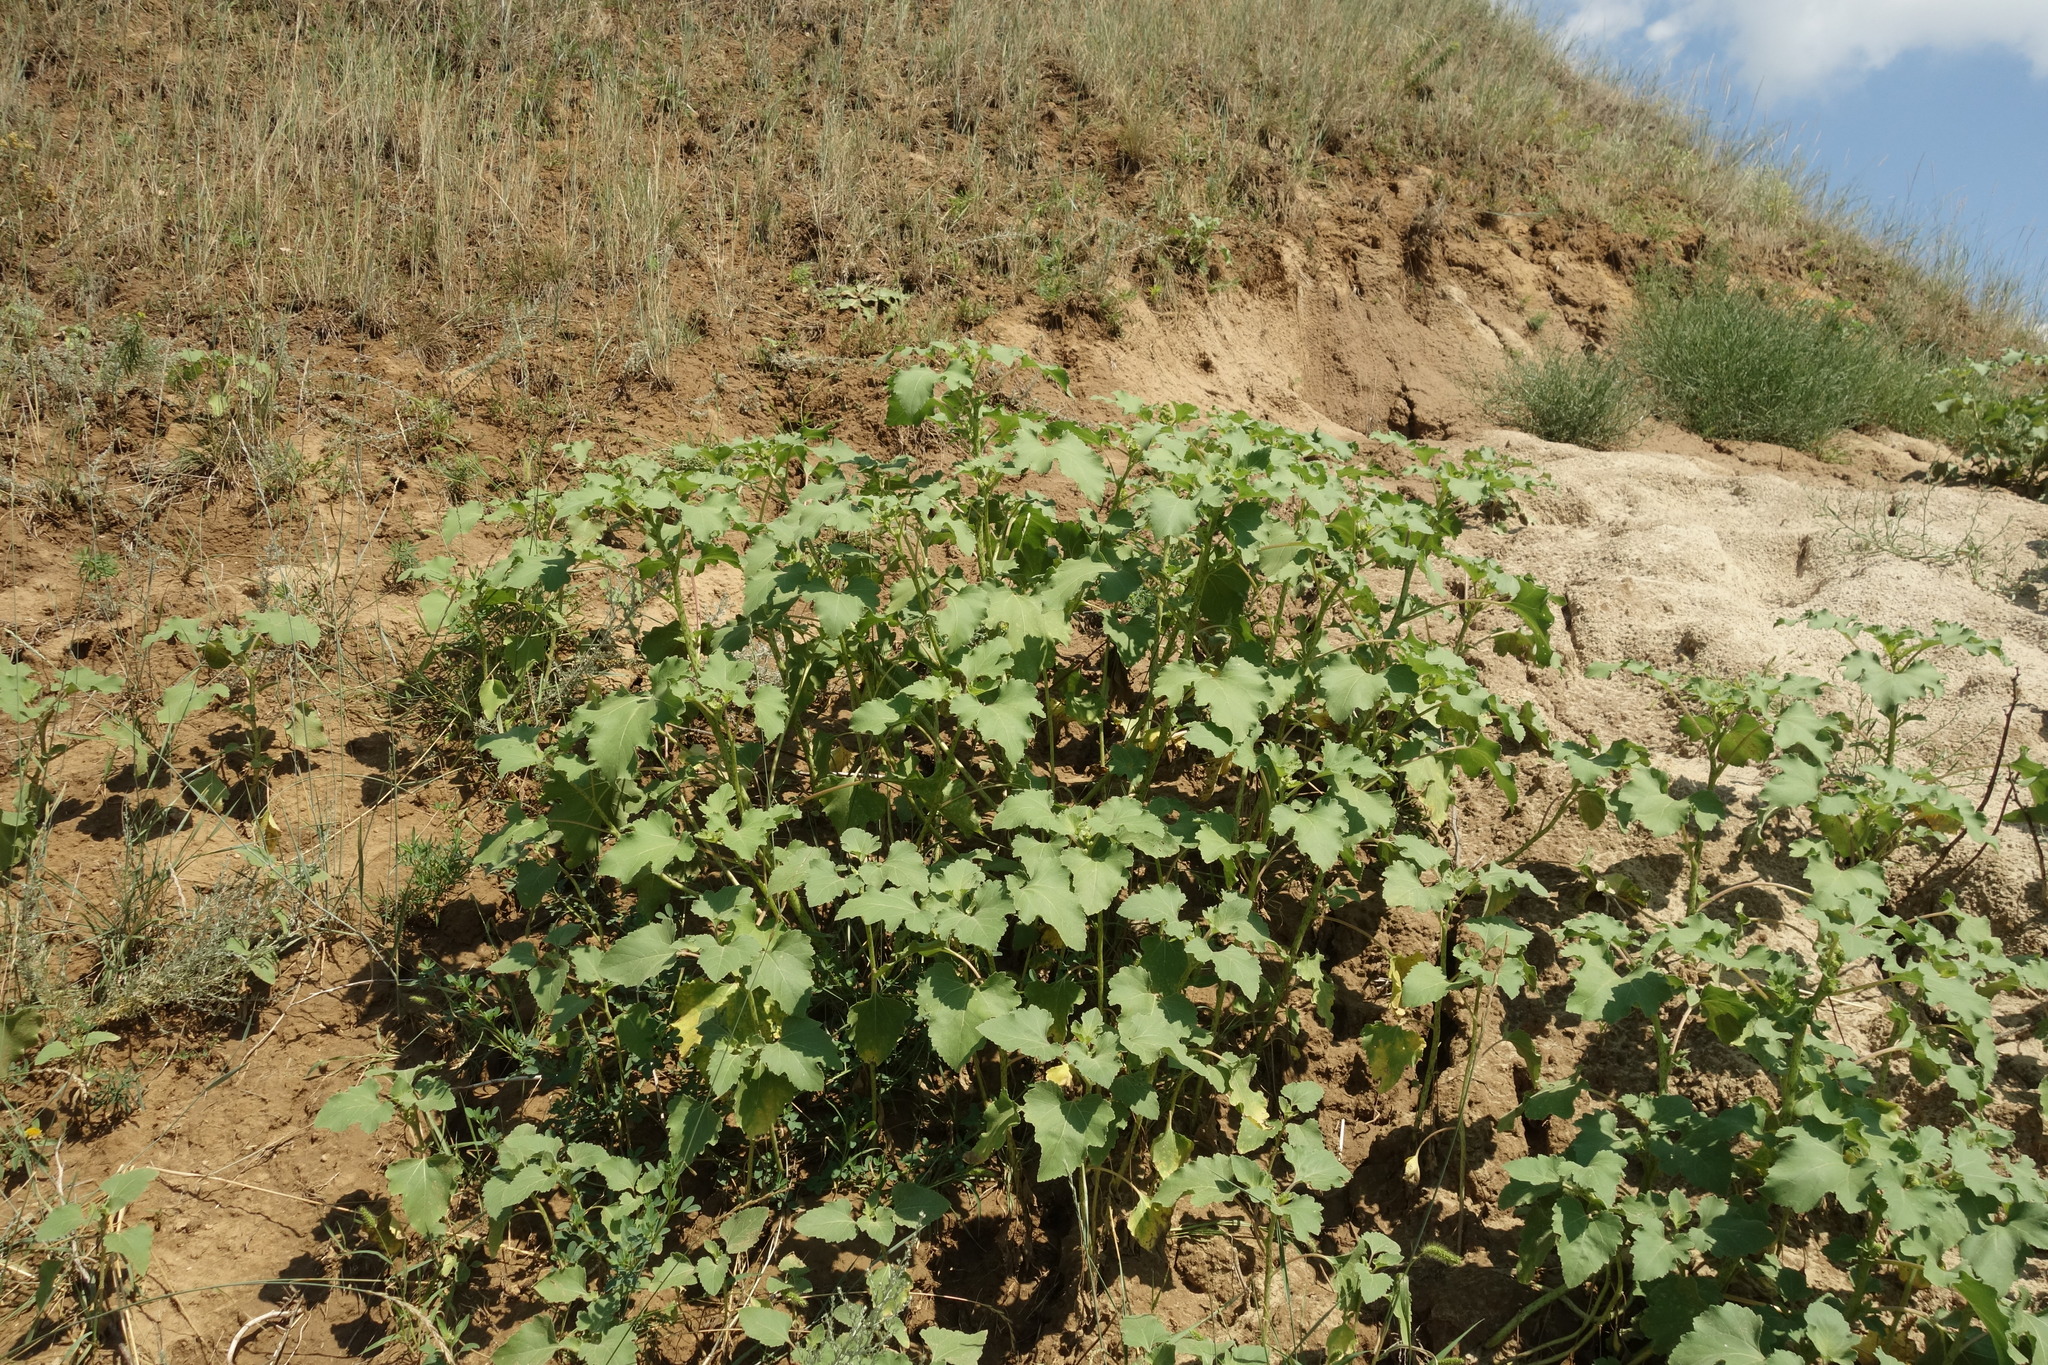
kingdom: Plantae
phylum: Tracheophyta
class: Magnoliopsida
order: Asterales
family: Asteraceae
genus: Xanthium
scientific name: Xanthium orientale
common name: Californian burr
